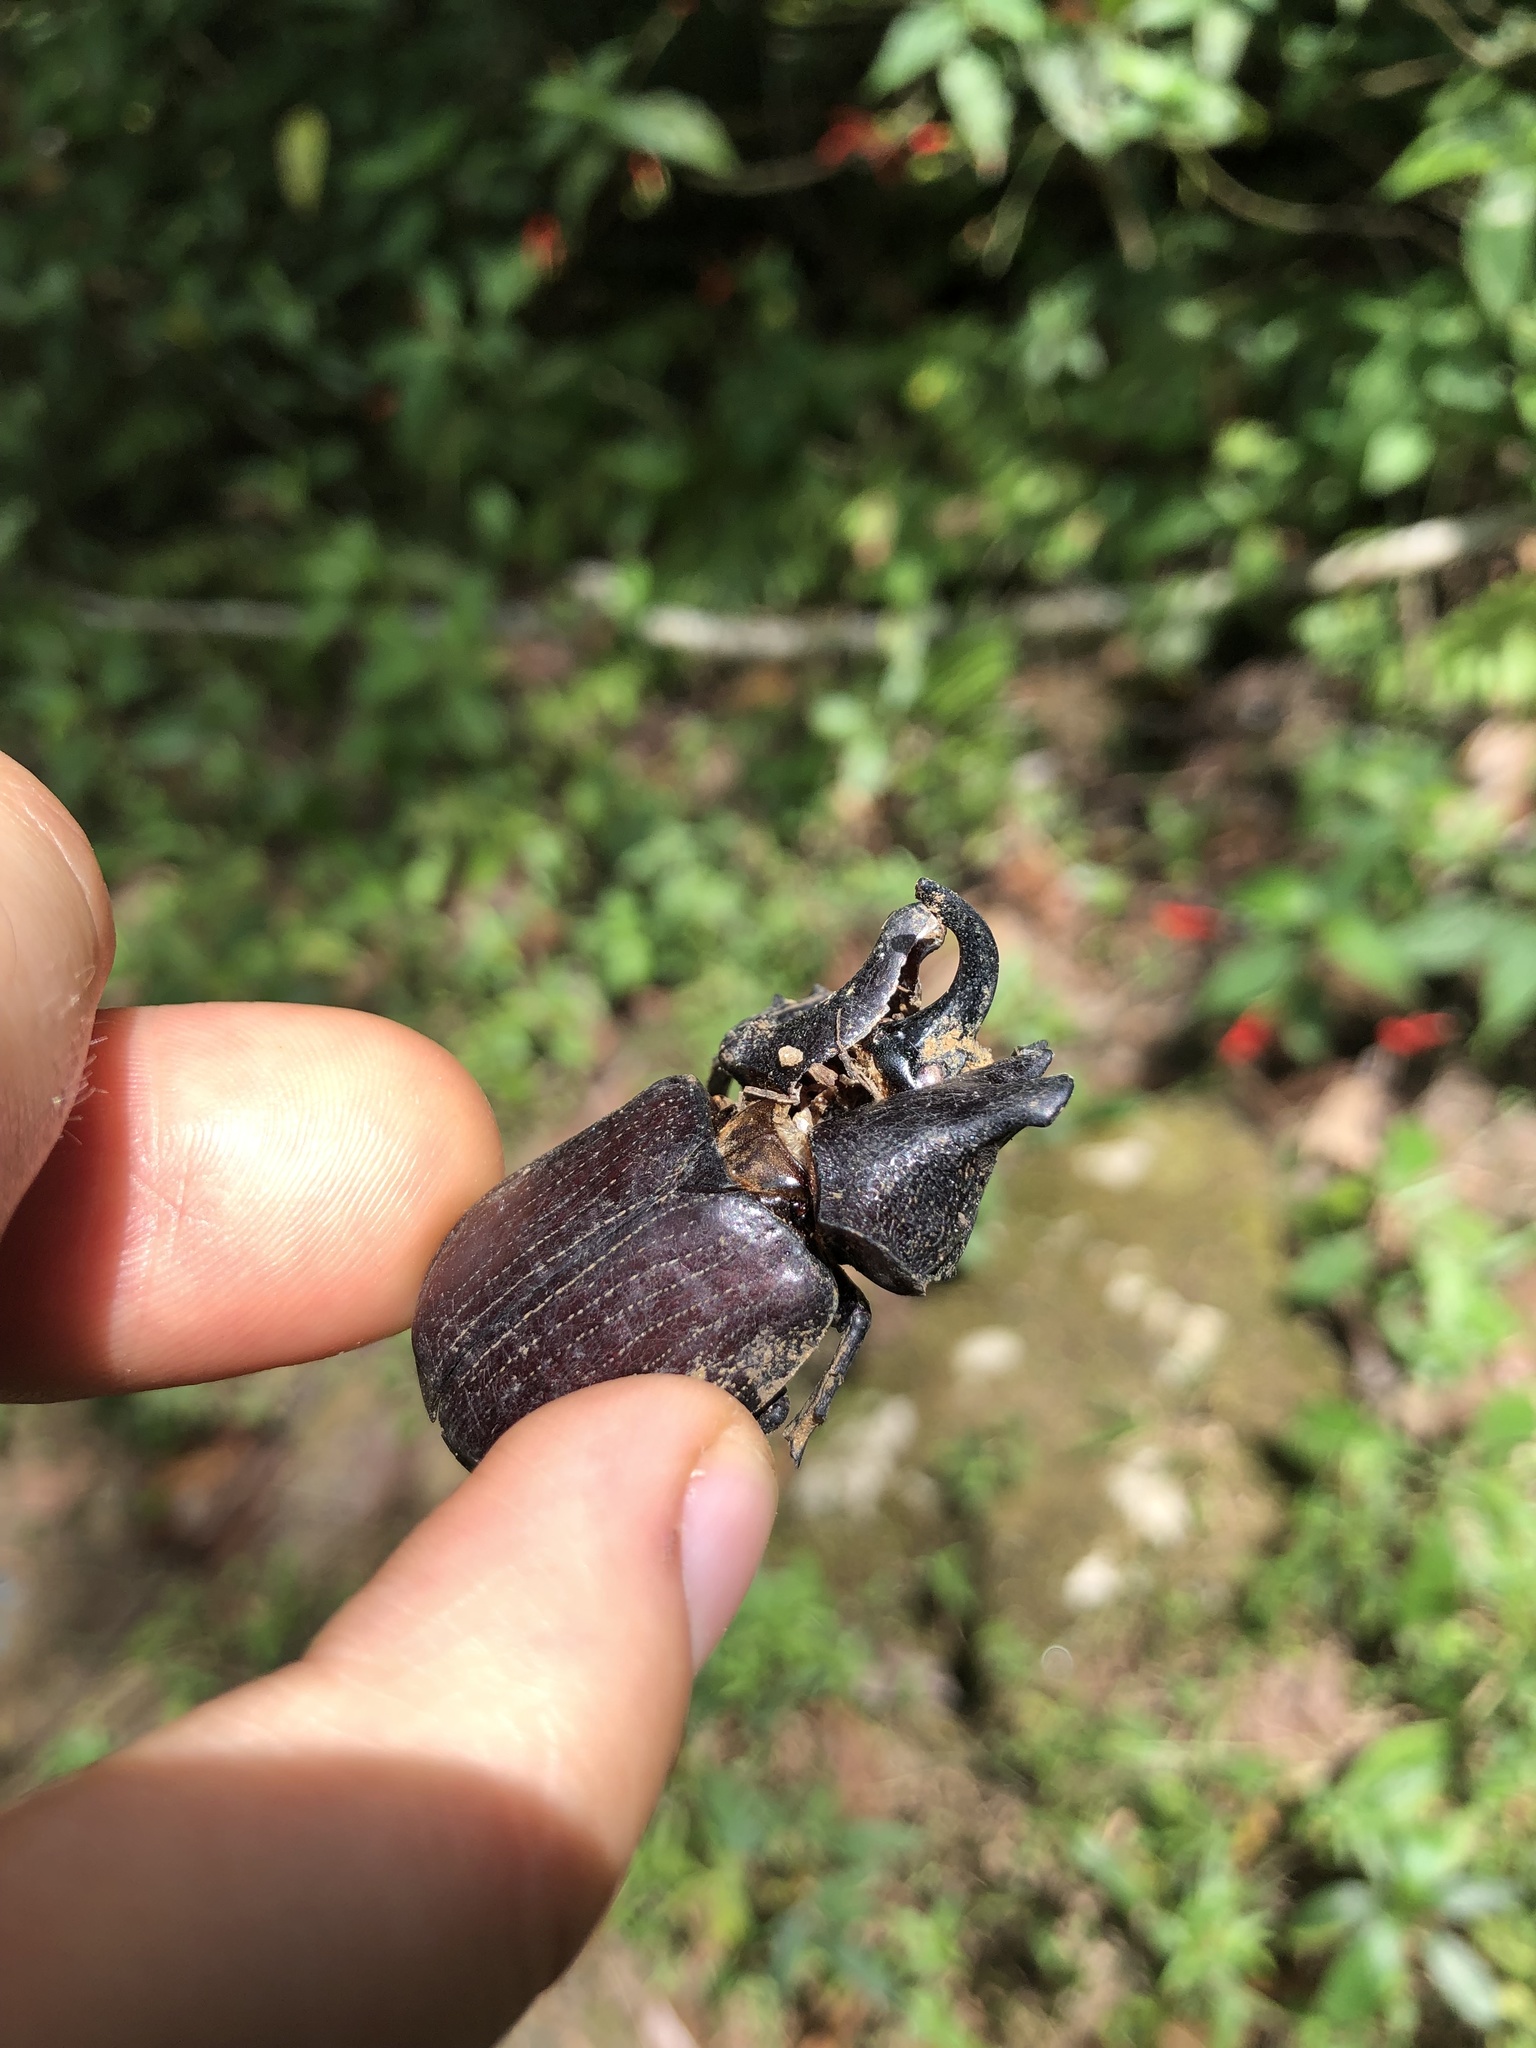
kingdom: Animalia
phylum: Arthropoda
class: Insecta
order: Coleoptera
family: Scarabaeidae
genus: Coelosis
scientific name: Coelosis biloba
